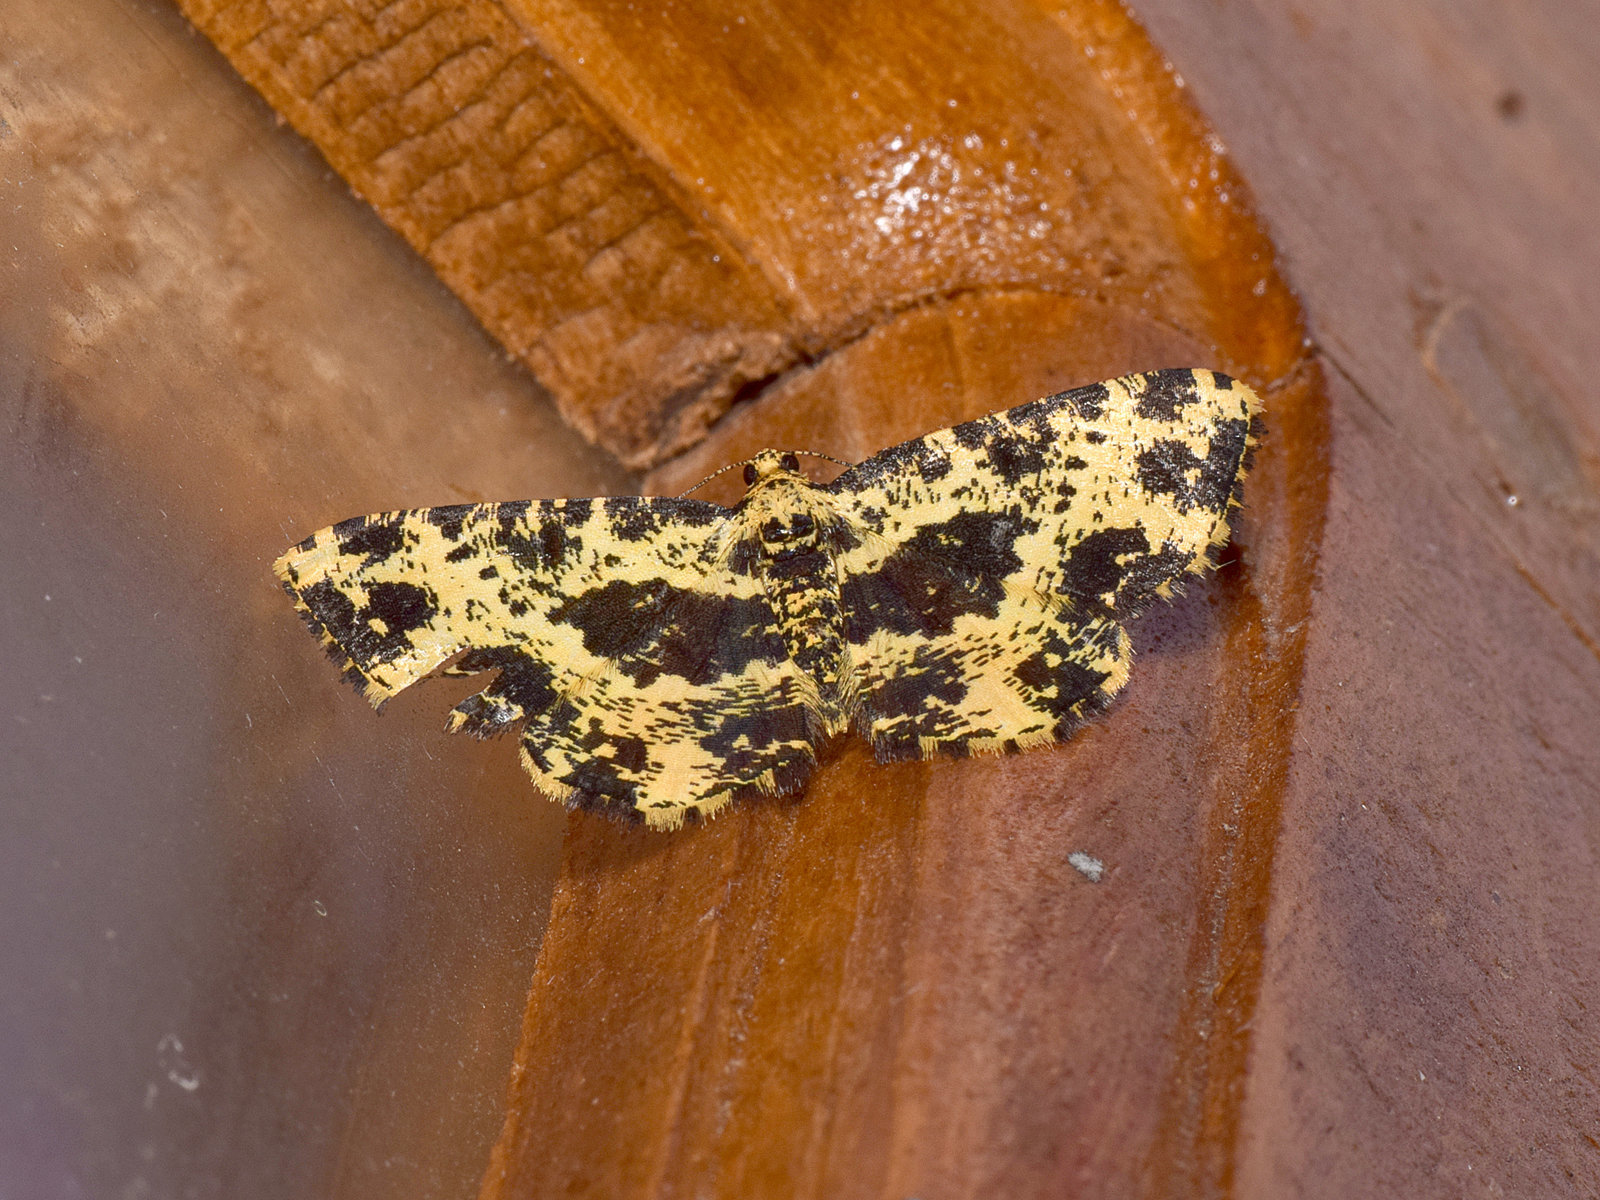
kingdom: Animalia
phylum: Arthropoda
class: Insecta
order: Lepidoptera
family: Geometridae
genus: Monocerotesa
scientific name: Monocerotesa radiata
